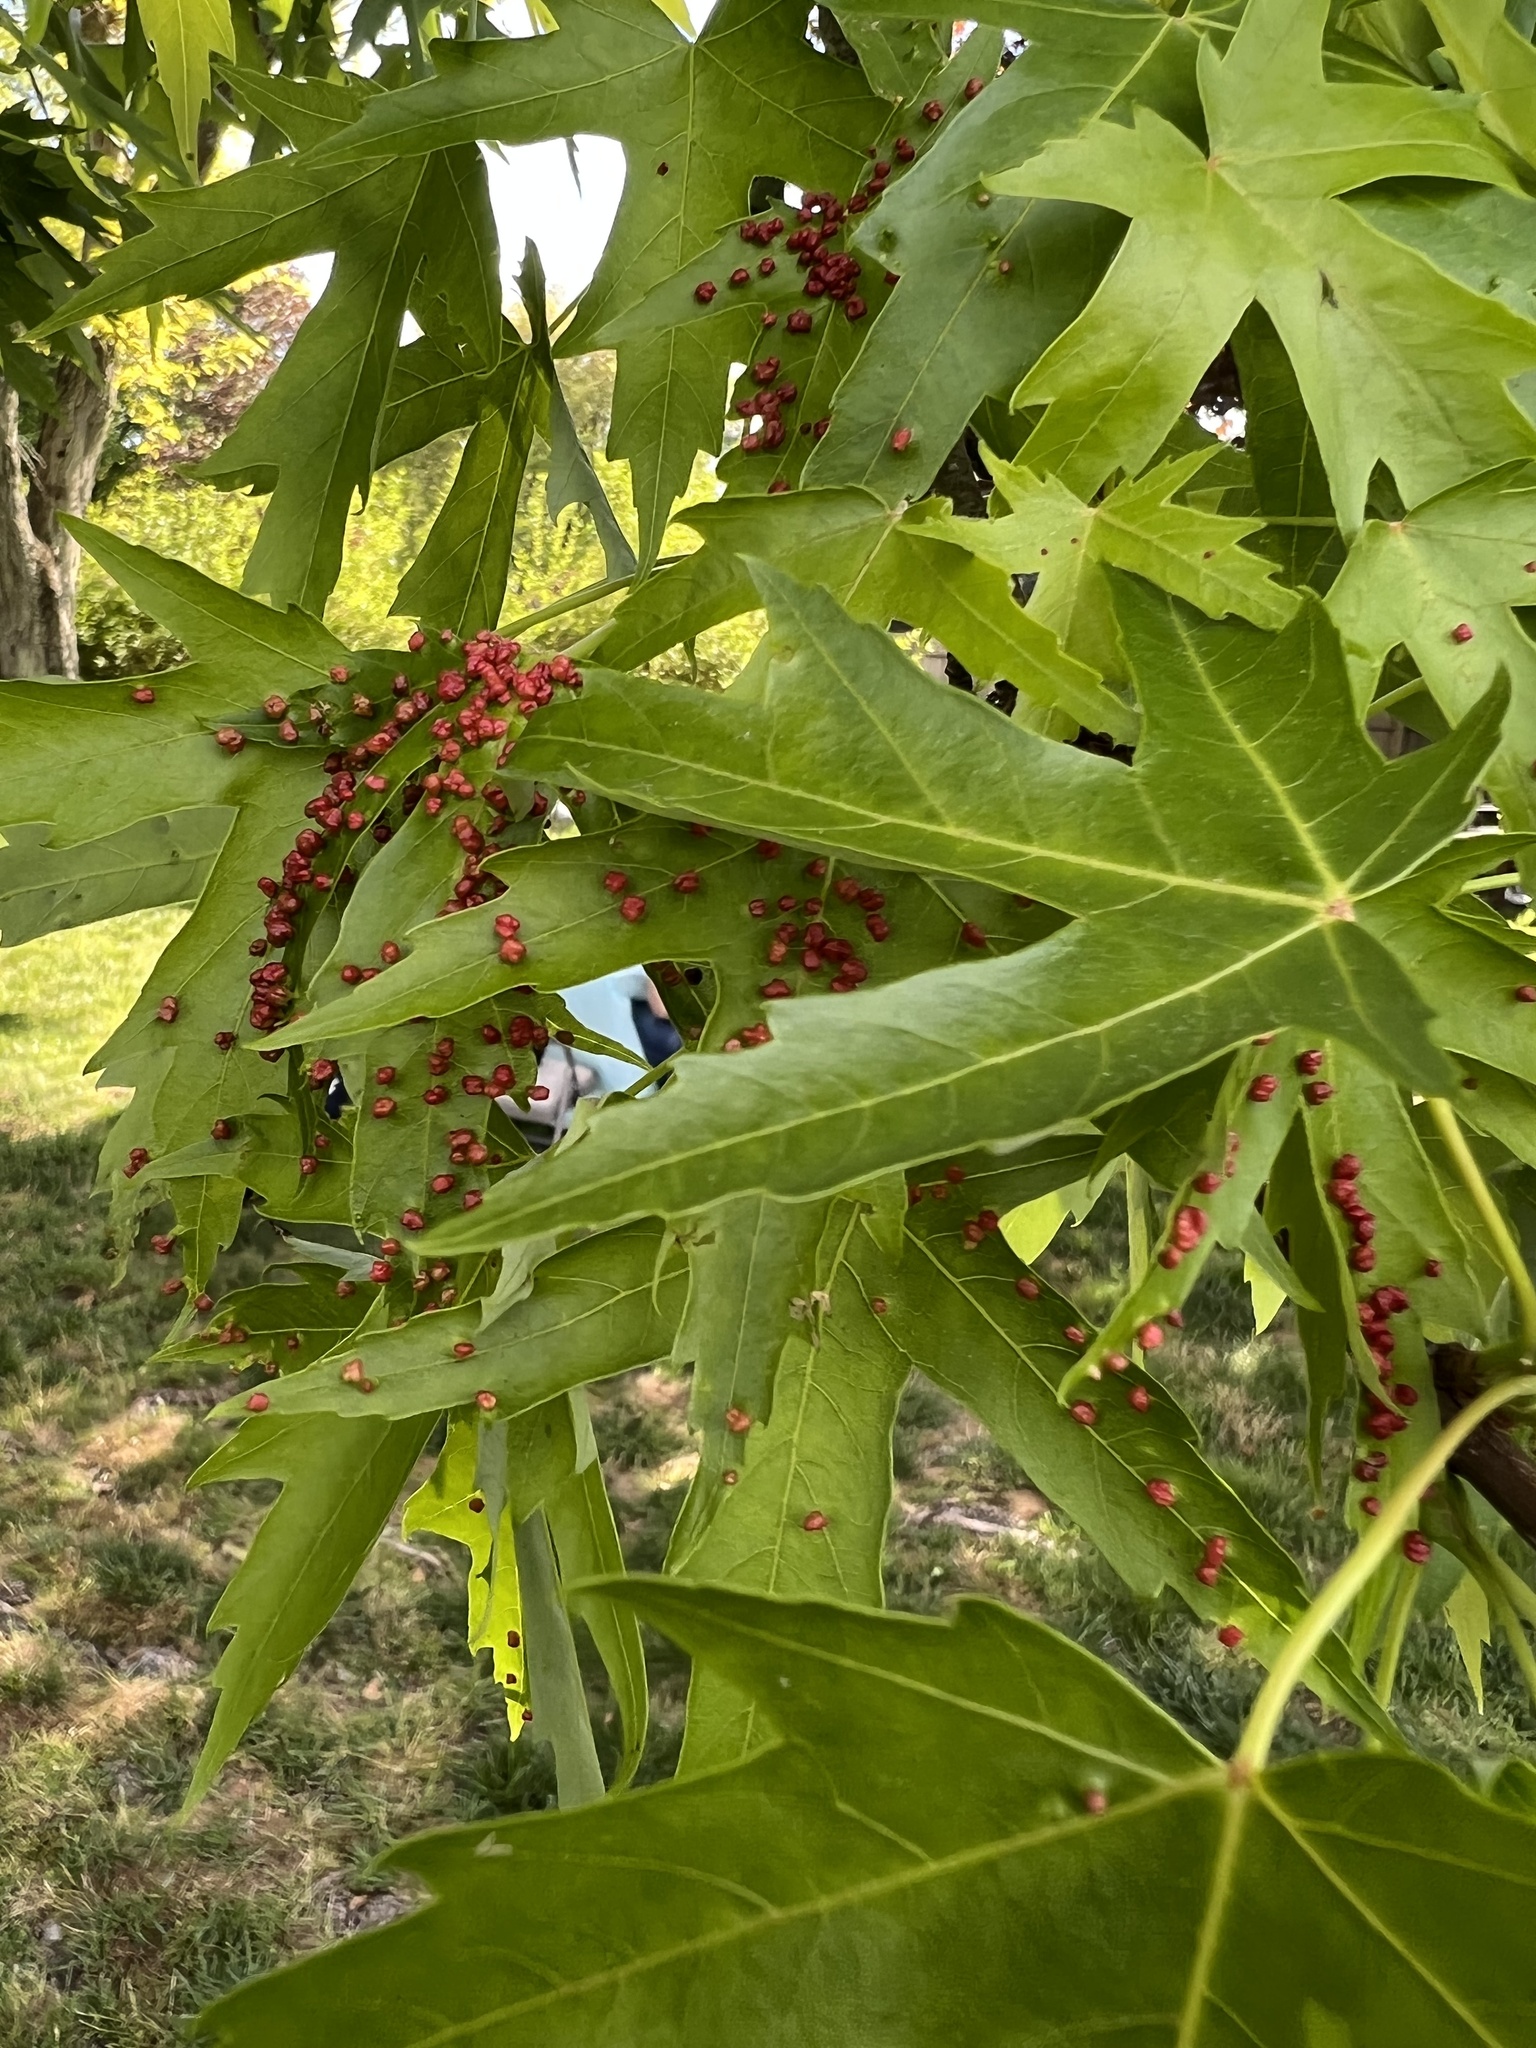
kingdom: Animalia
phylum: Arthropoda
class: Arachnida
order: Trombidiformes
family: Eriophyidae
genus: Vasates
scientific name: Vasates quadripedes
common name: Maple bladder gall mite
